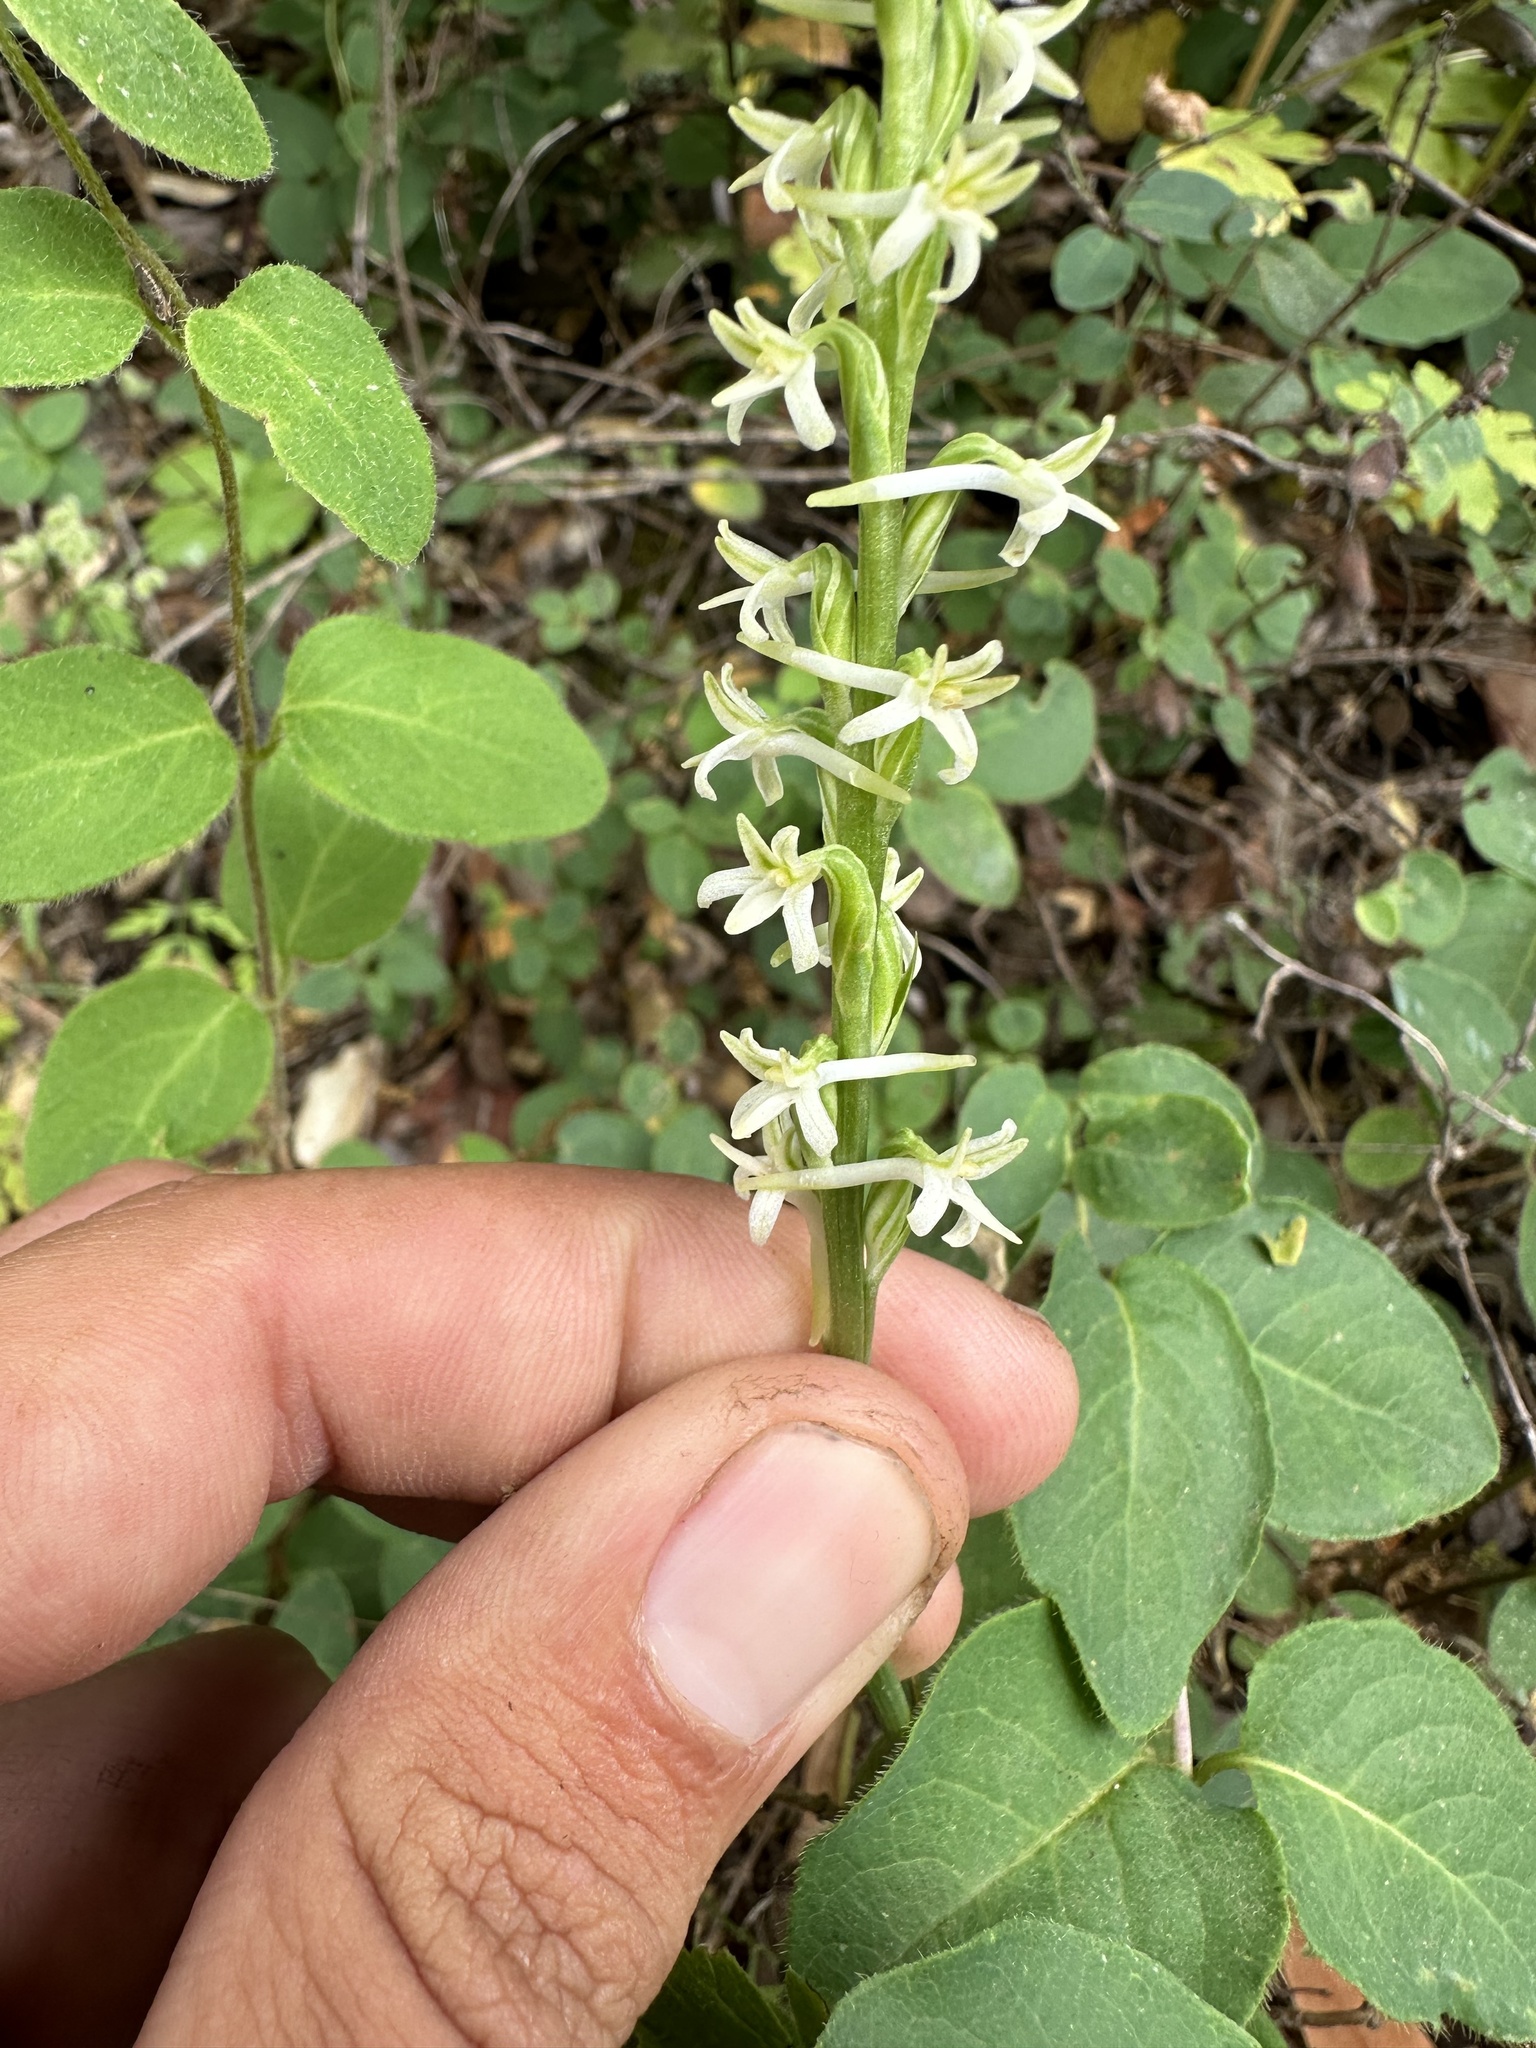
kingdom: Plantae
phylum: Tracheophyta
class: Liliopsida
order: Asparagales
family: Orchidaceae
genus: Platanthera
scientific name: Platanthera transversa
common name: Royal rein orchid
